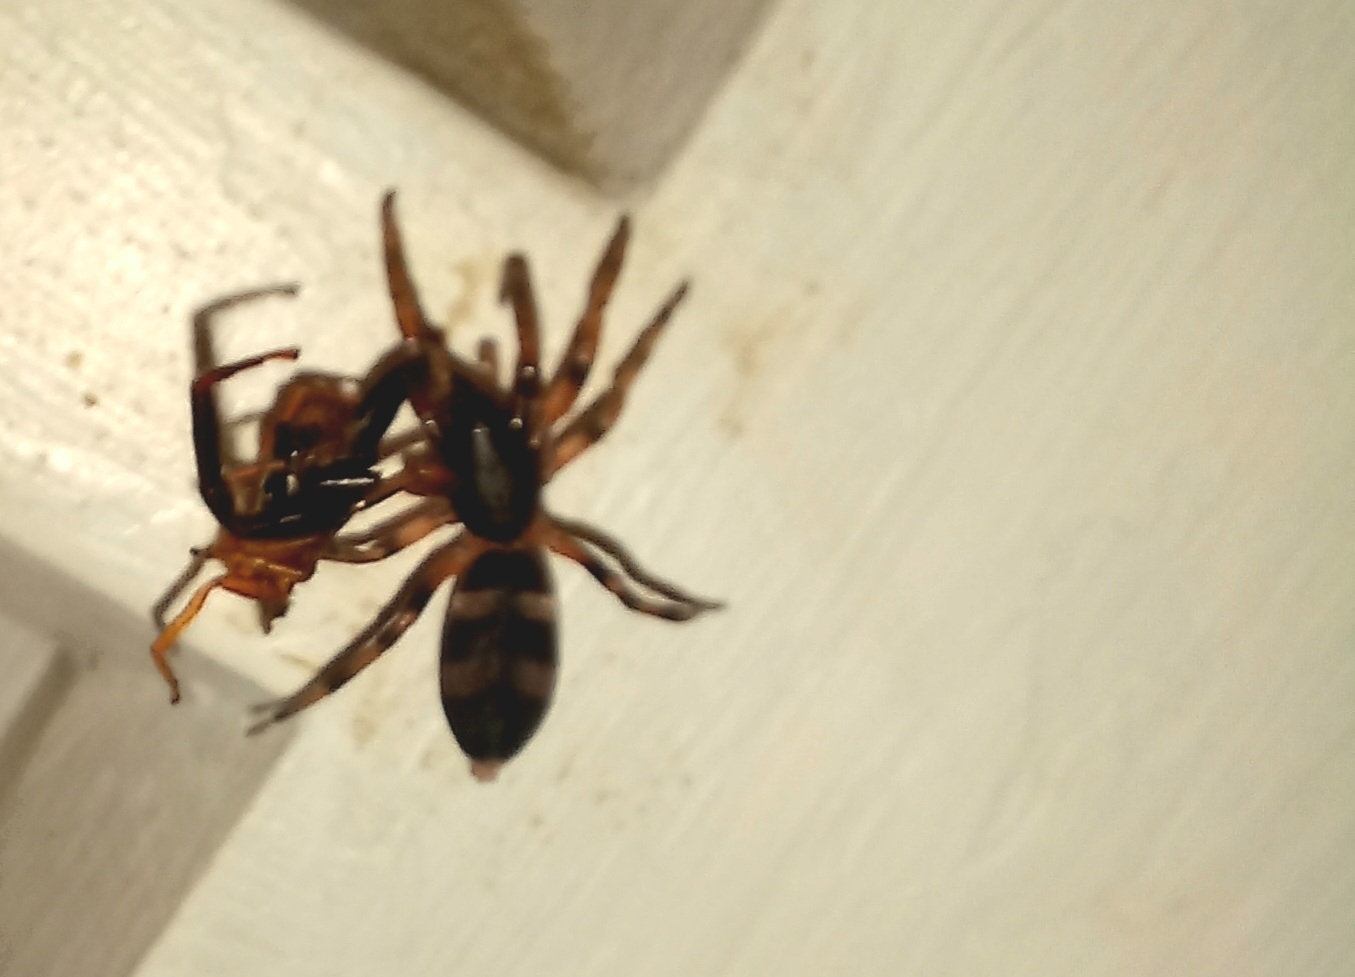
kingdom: Animalia
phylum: Arthropoda
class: Arachnida
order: Araneae
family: Lamponidae
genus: Lampona
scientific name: Lampona murina
